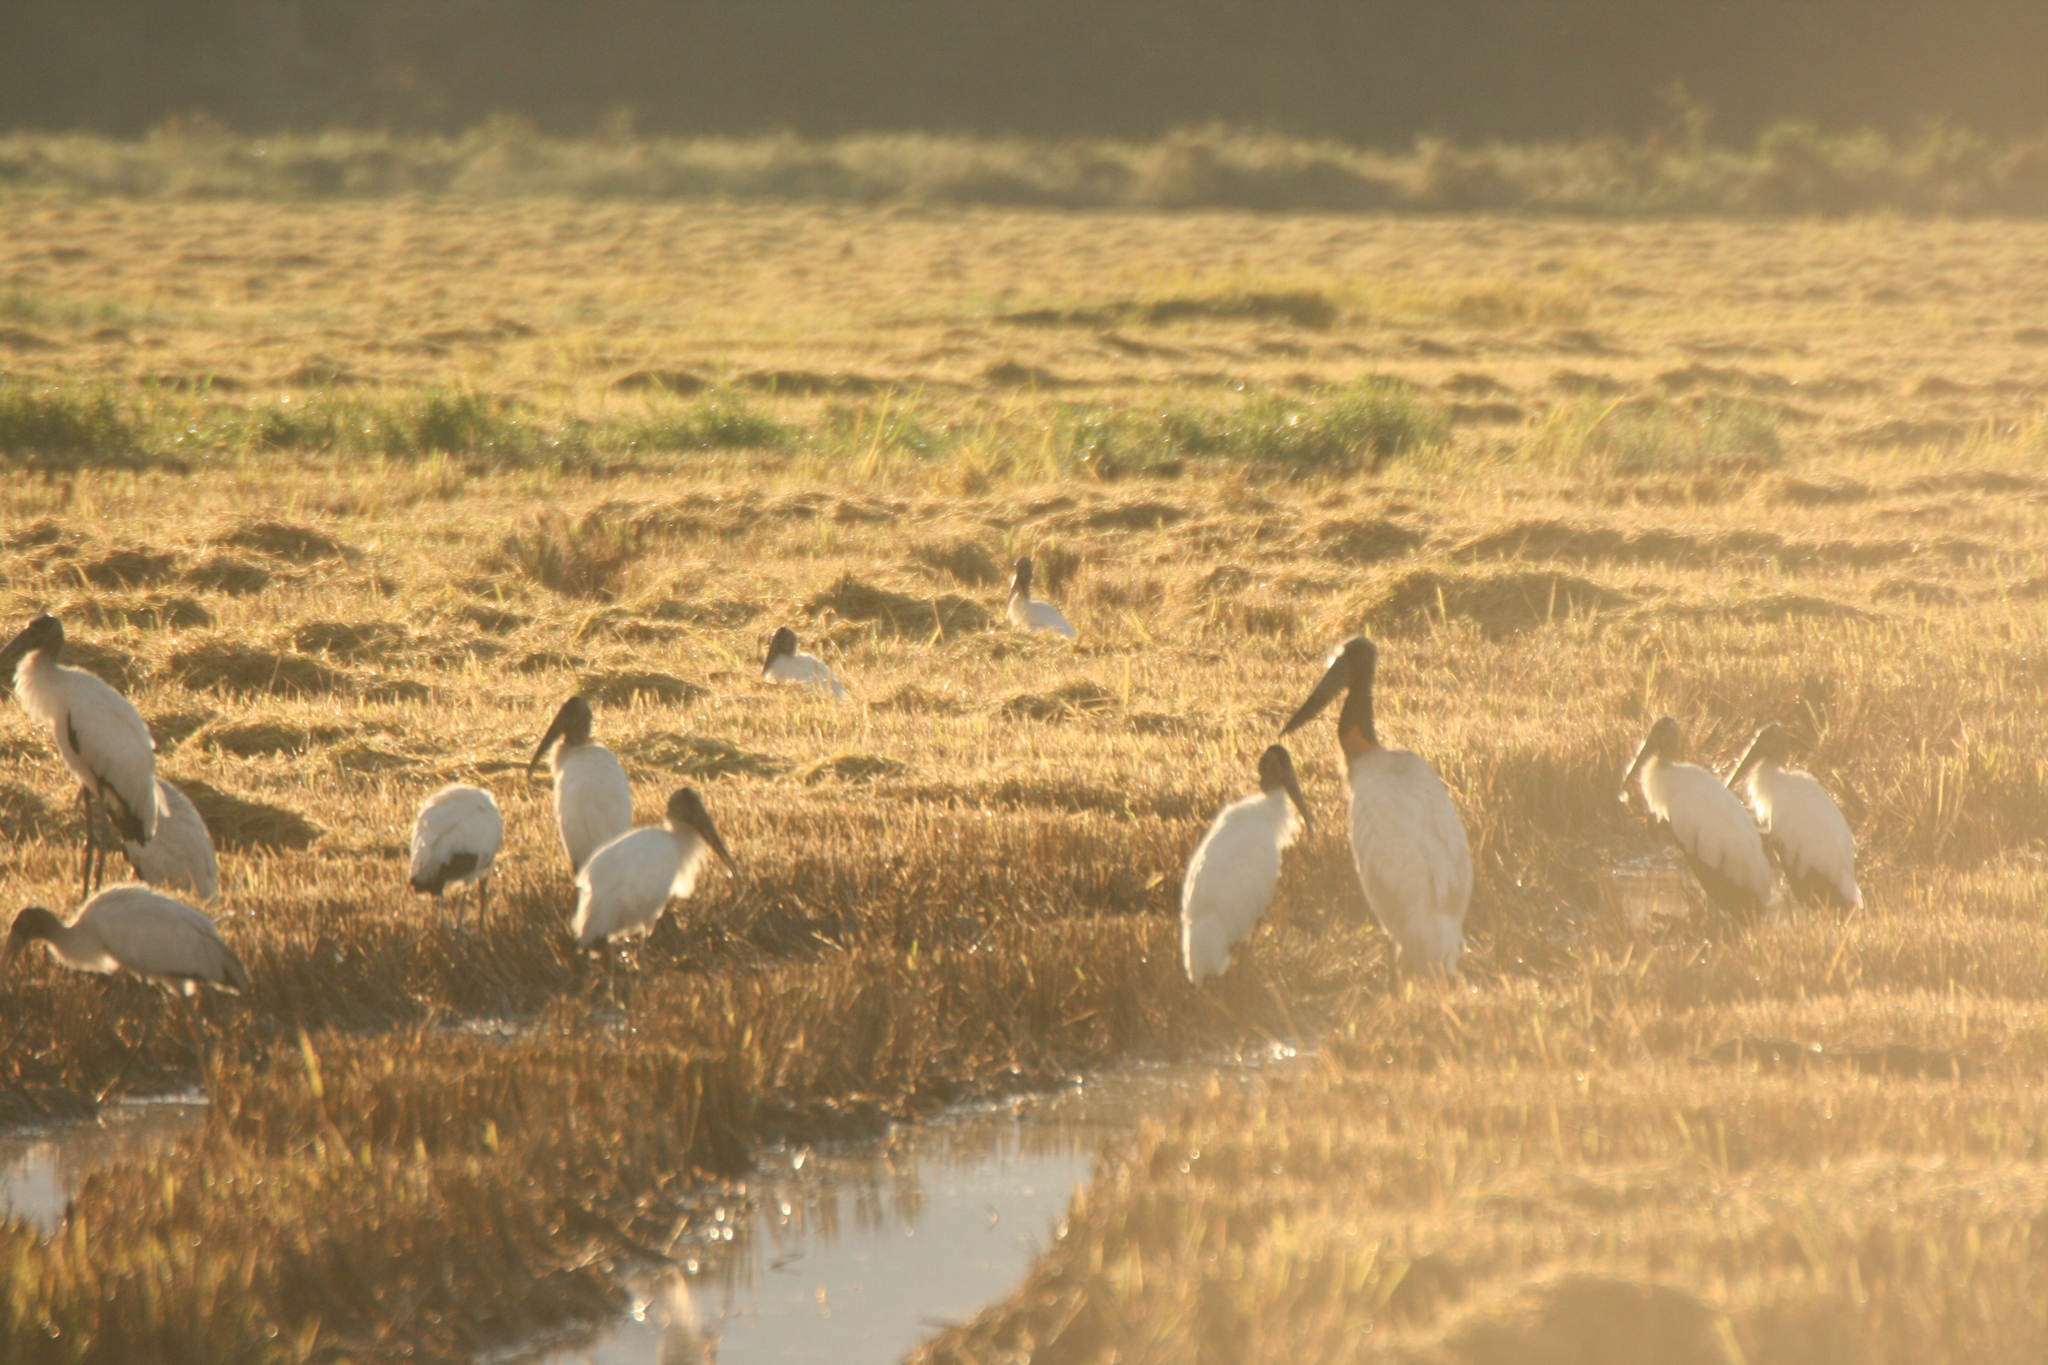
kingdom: Animalia
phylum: Chordata
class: Aves
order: Ciconiiformes
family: Ciconiidae
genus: Jabiru
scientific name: Jabiru mycteria
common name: Jabiru
